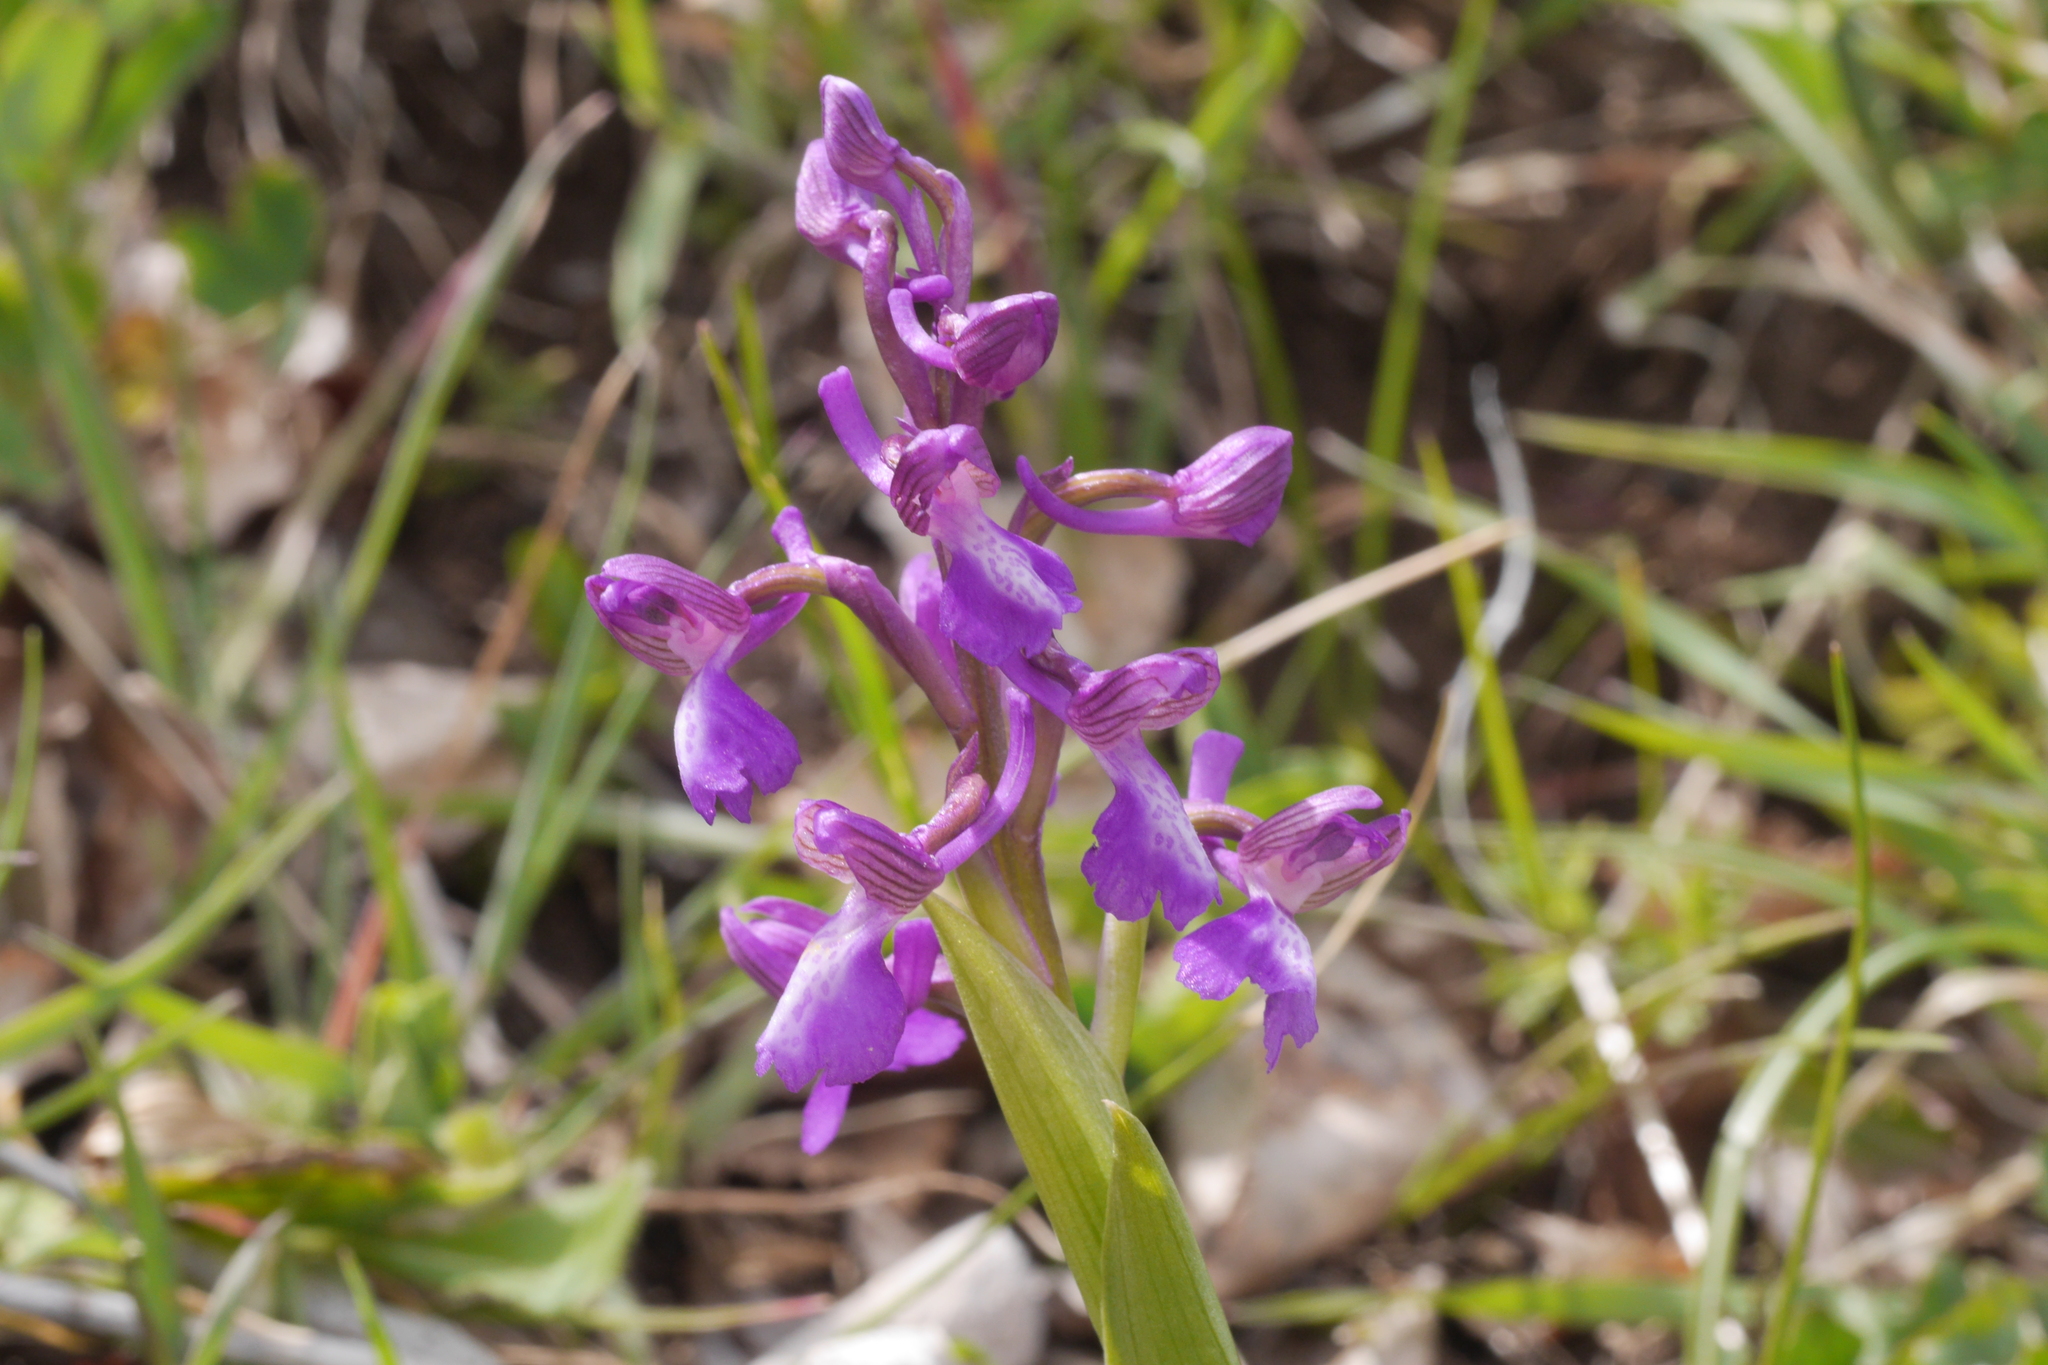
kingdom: Plantae
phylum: Tracheophyta
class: Liliopsida
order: Asparagales
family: Orchidaceae
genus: Anacamptis
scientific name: Anacamptis morio
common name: Green-winged orchid
